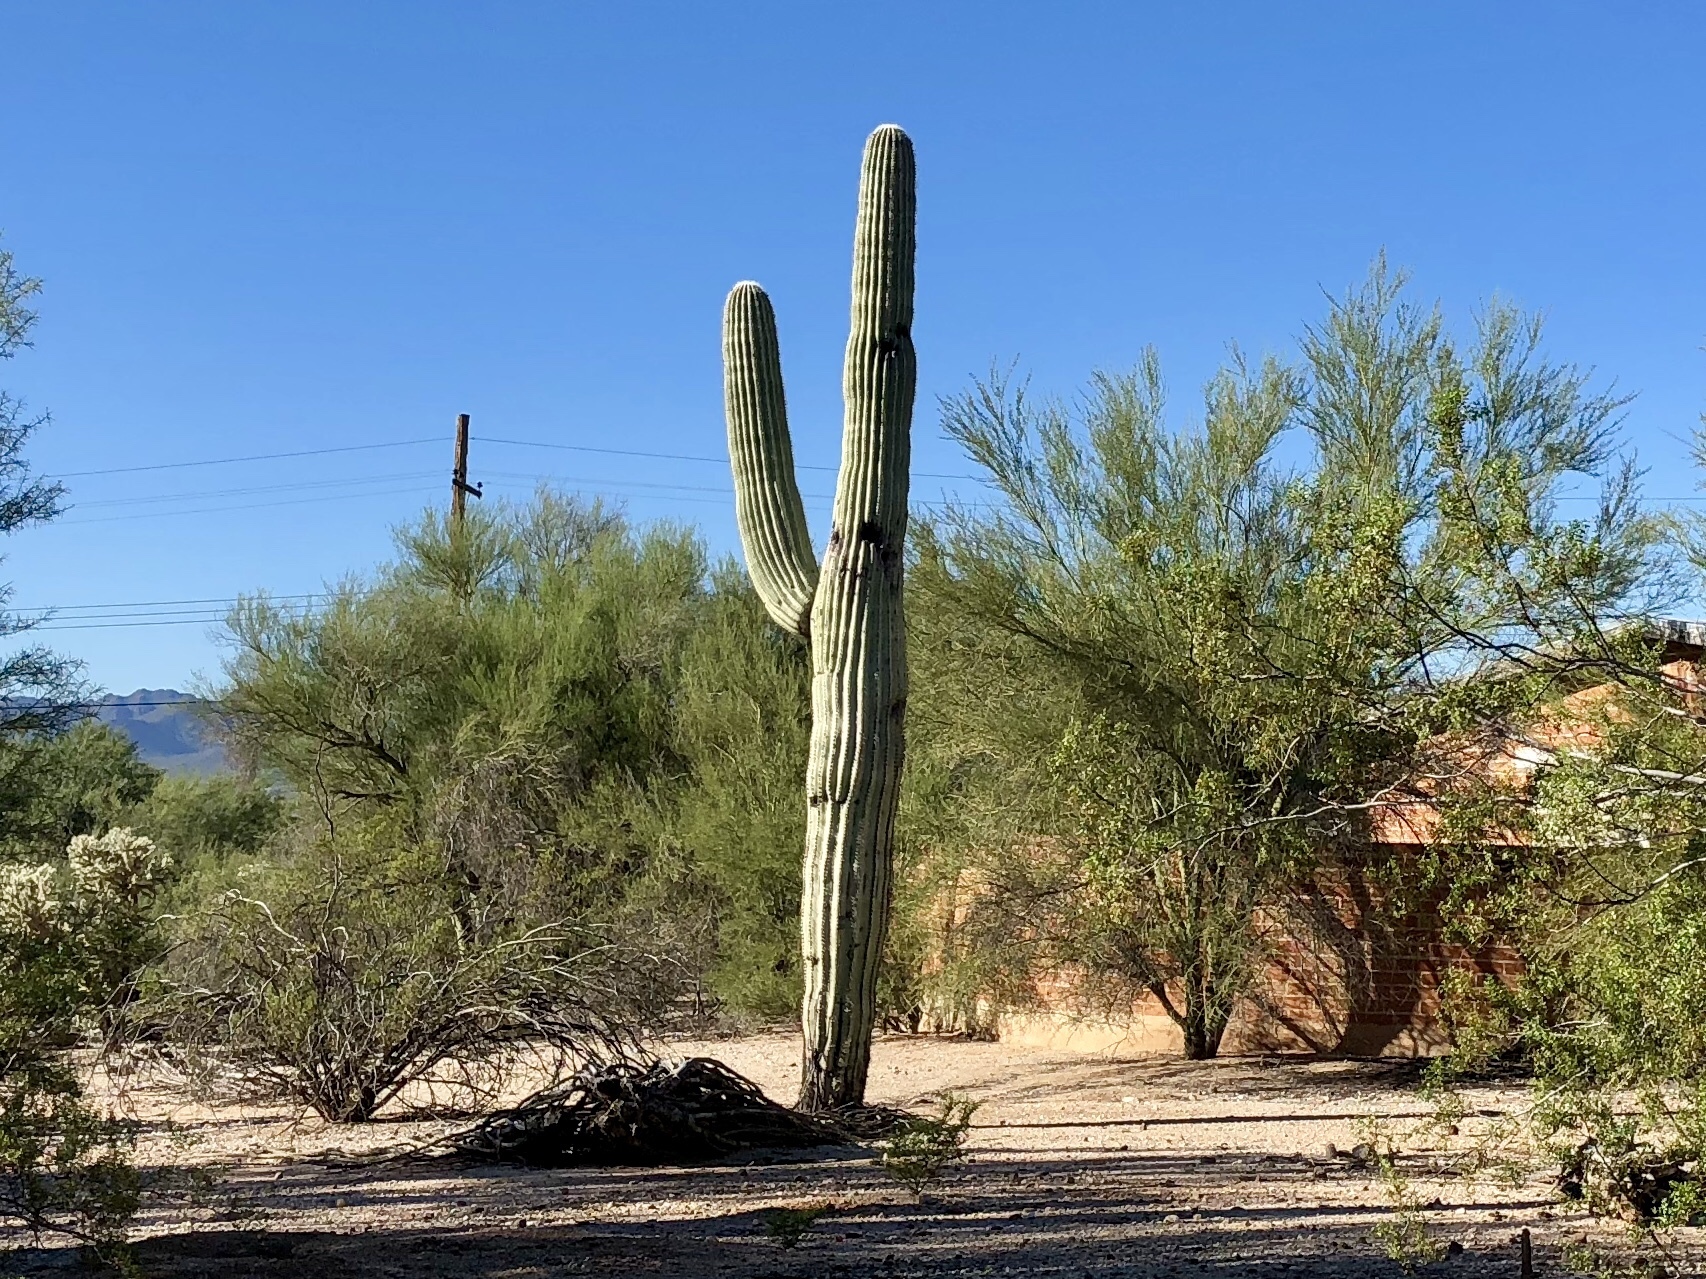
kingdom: Plantae
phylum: Tracheophyta
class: Magnoliopsida
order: Caryophyllales
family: Cactaceae
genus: Carnegiea
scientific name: Carnegiea gigantea
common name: Saguaro
